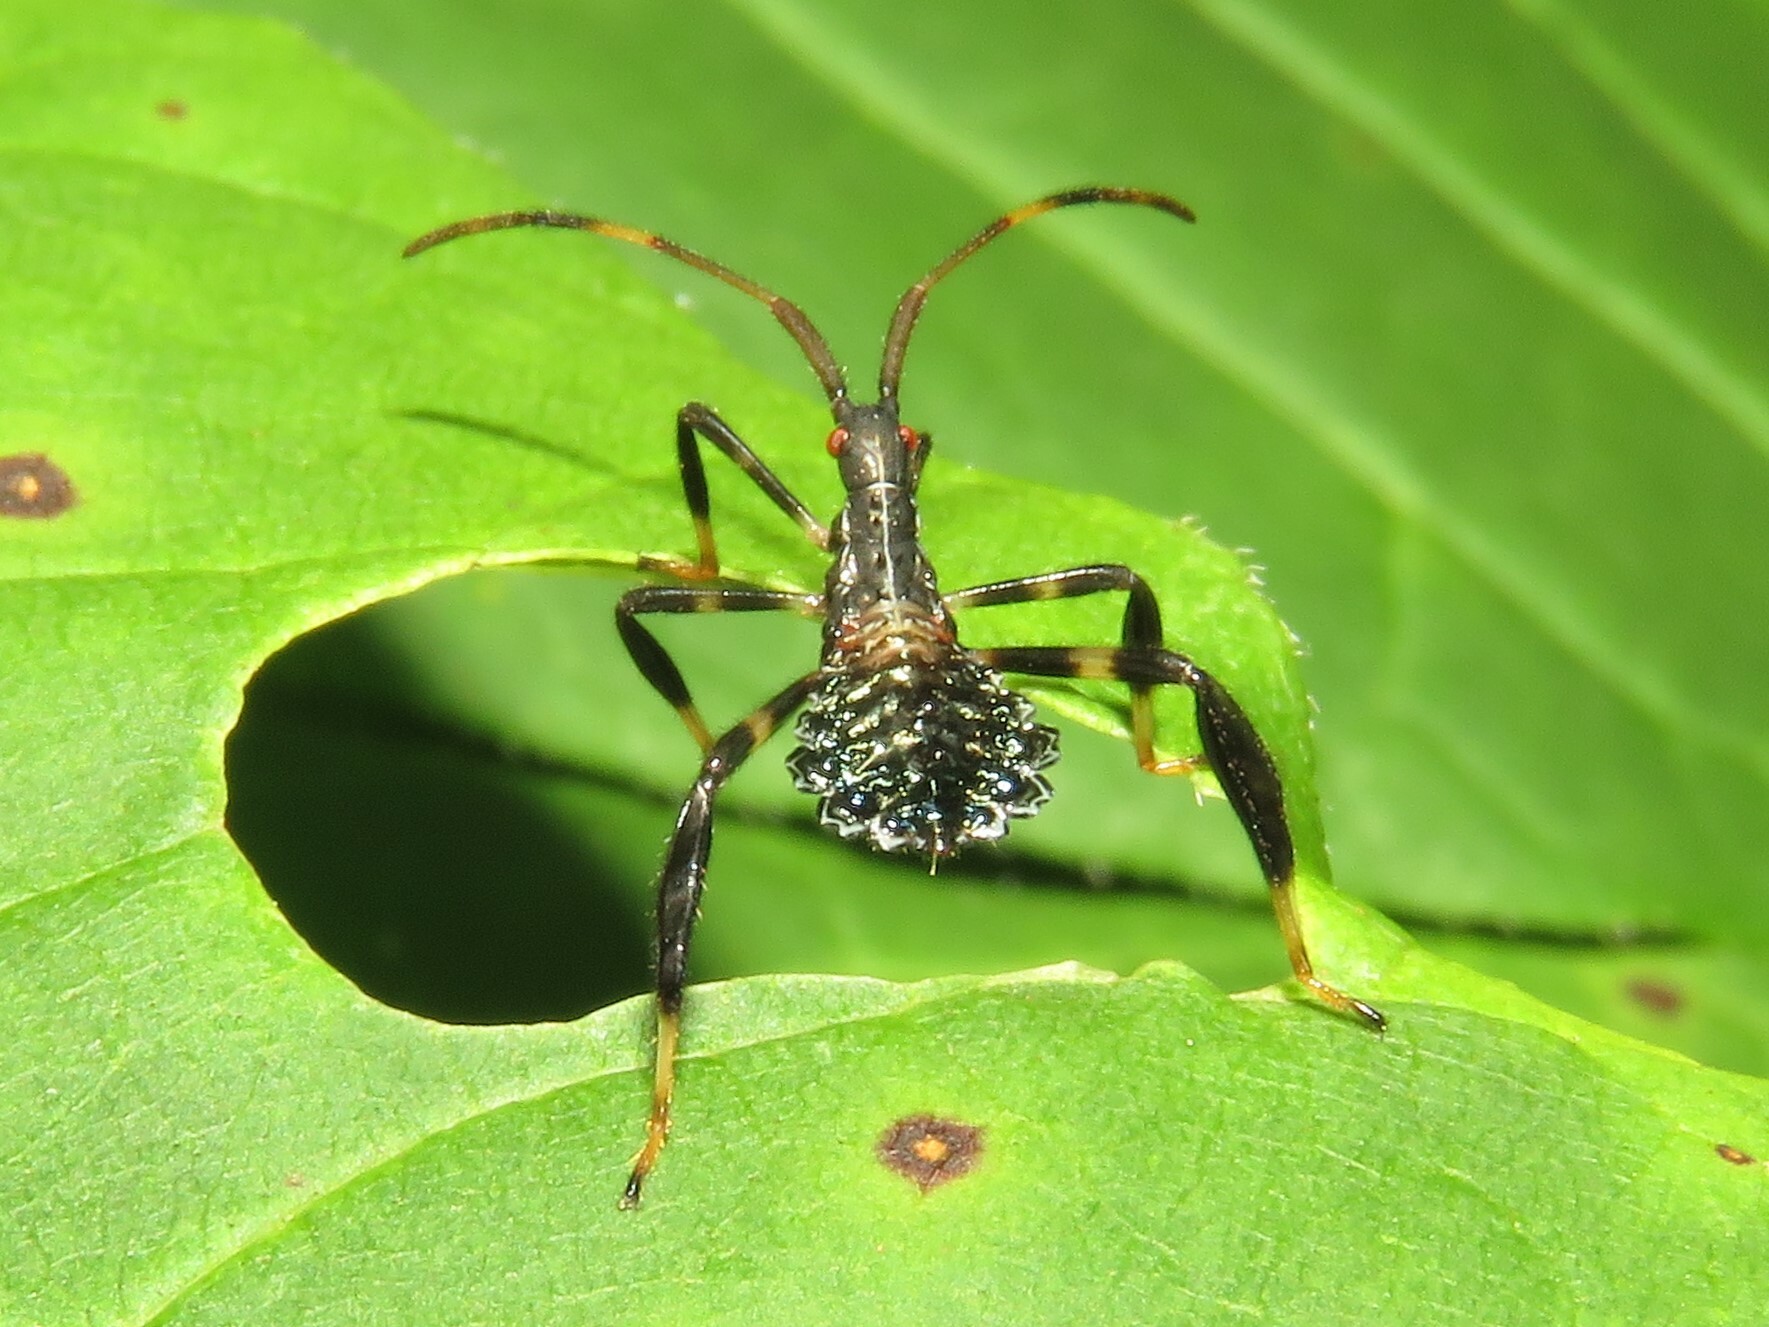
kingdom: Animalia
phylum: Arthropoda
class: Insecta
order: Hemiptera
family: Coreidae
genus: Acanthocephala
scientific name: Acanthocephala terminalis
